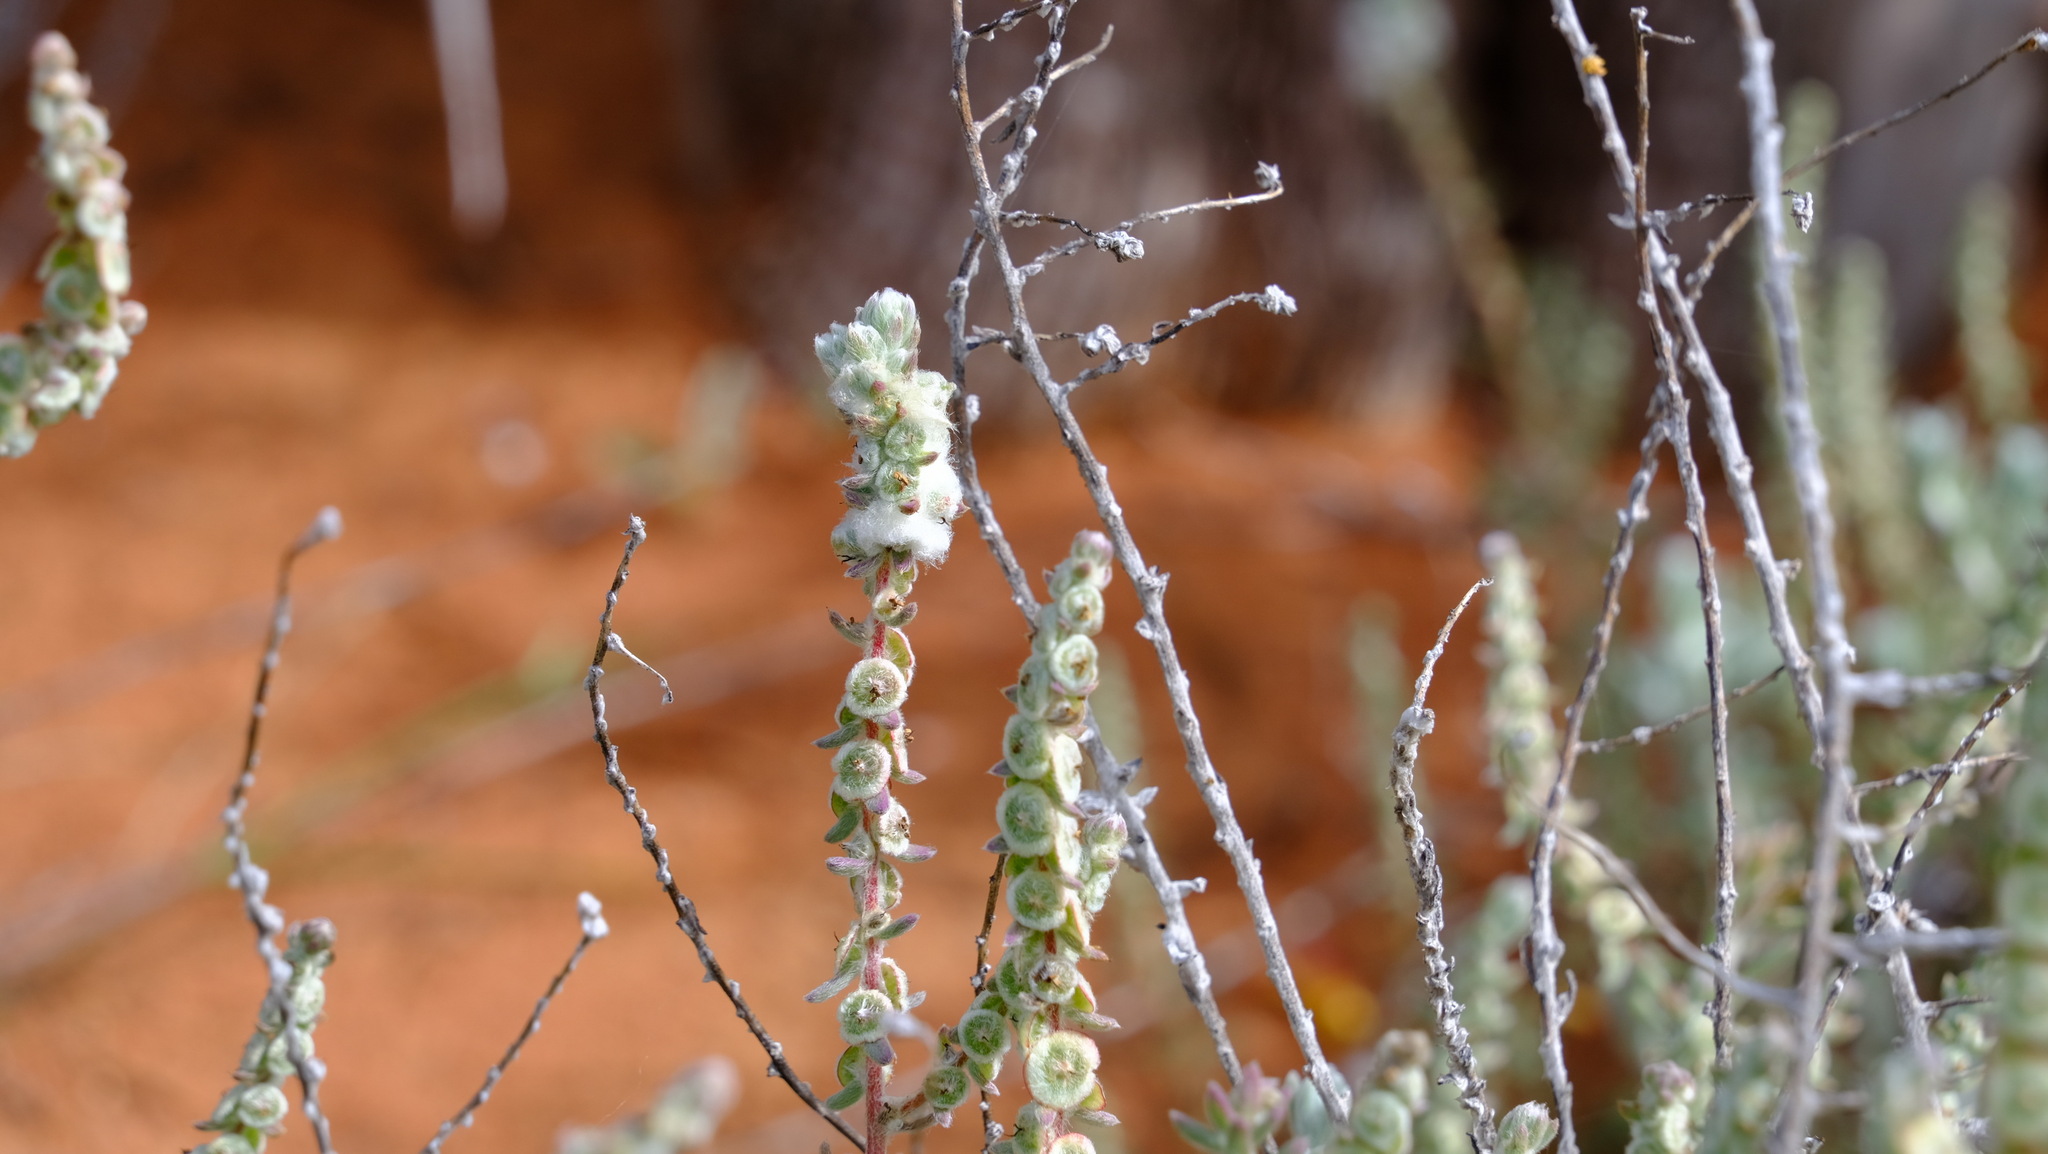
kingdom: Plantae
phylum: Tracheophyta
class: Magnoliopsida
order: Caryophyllales
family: Amaranthaceae
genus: Maireana
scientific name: Maireana trichoptera
